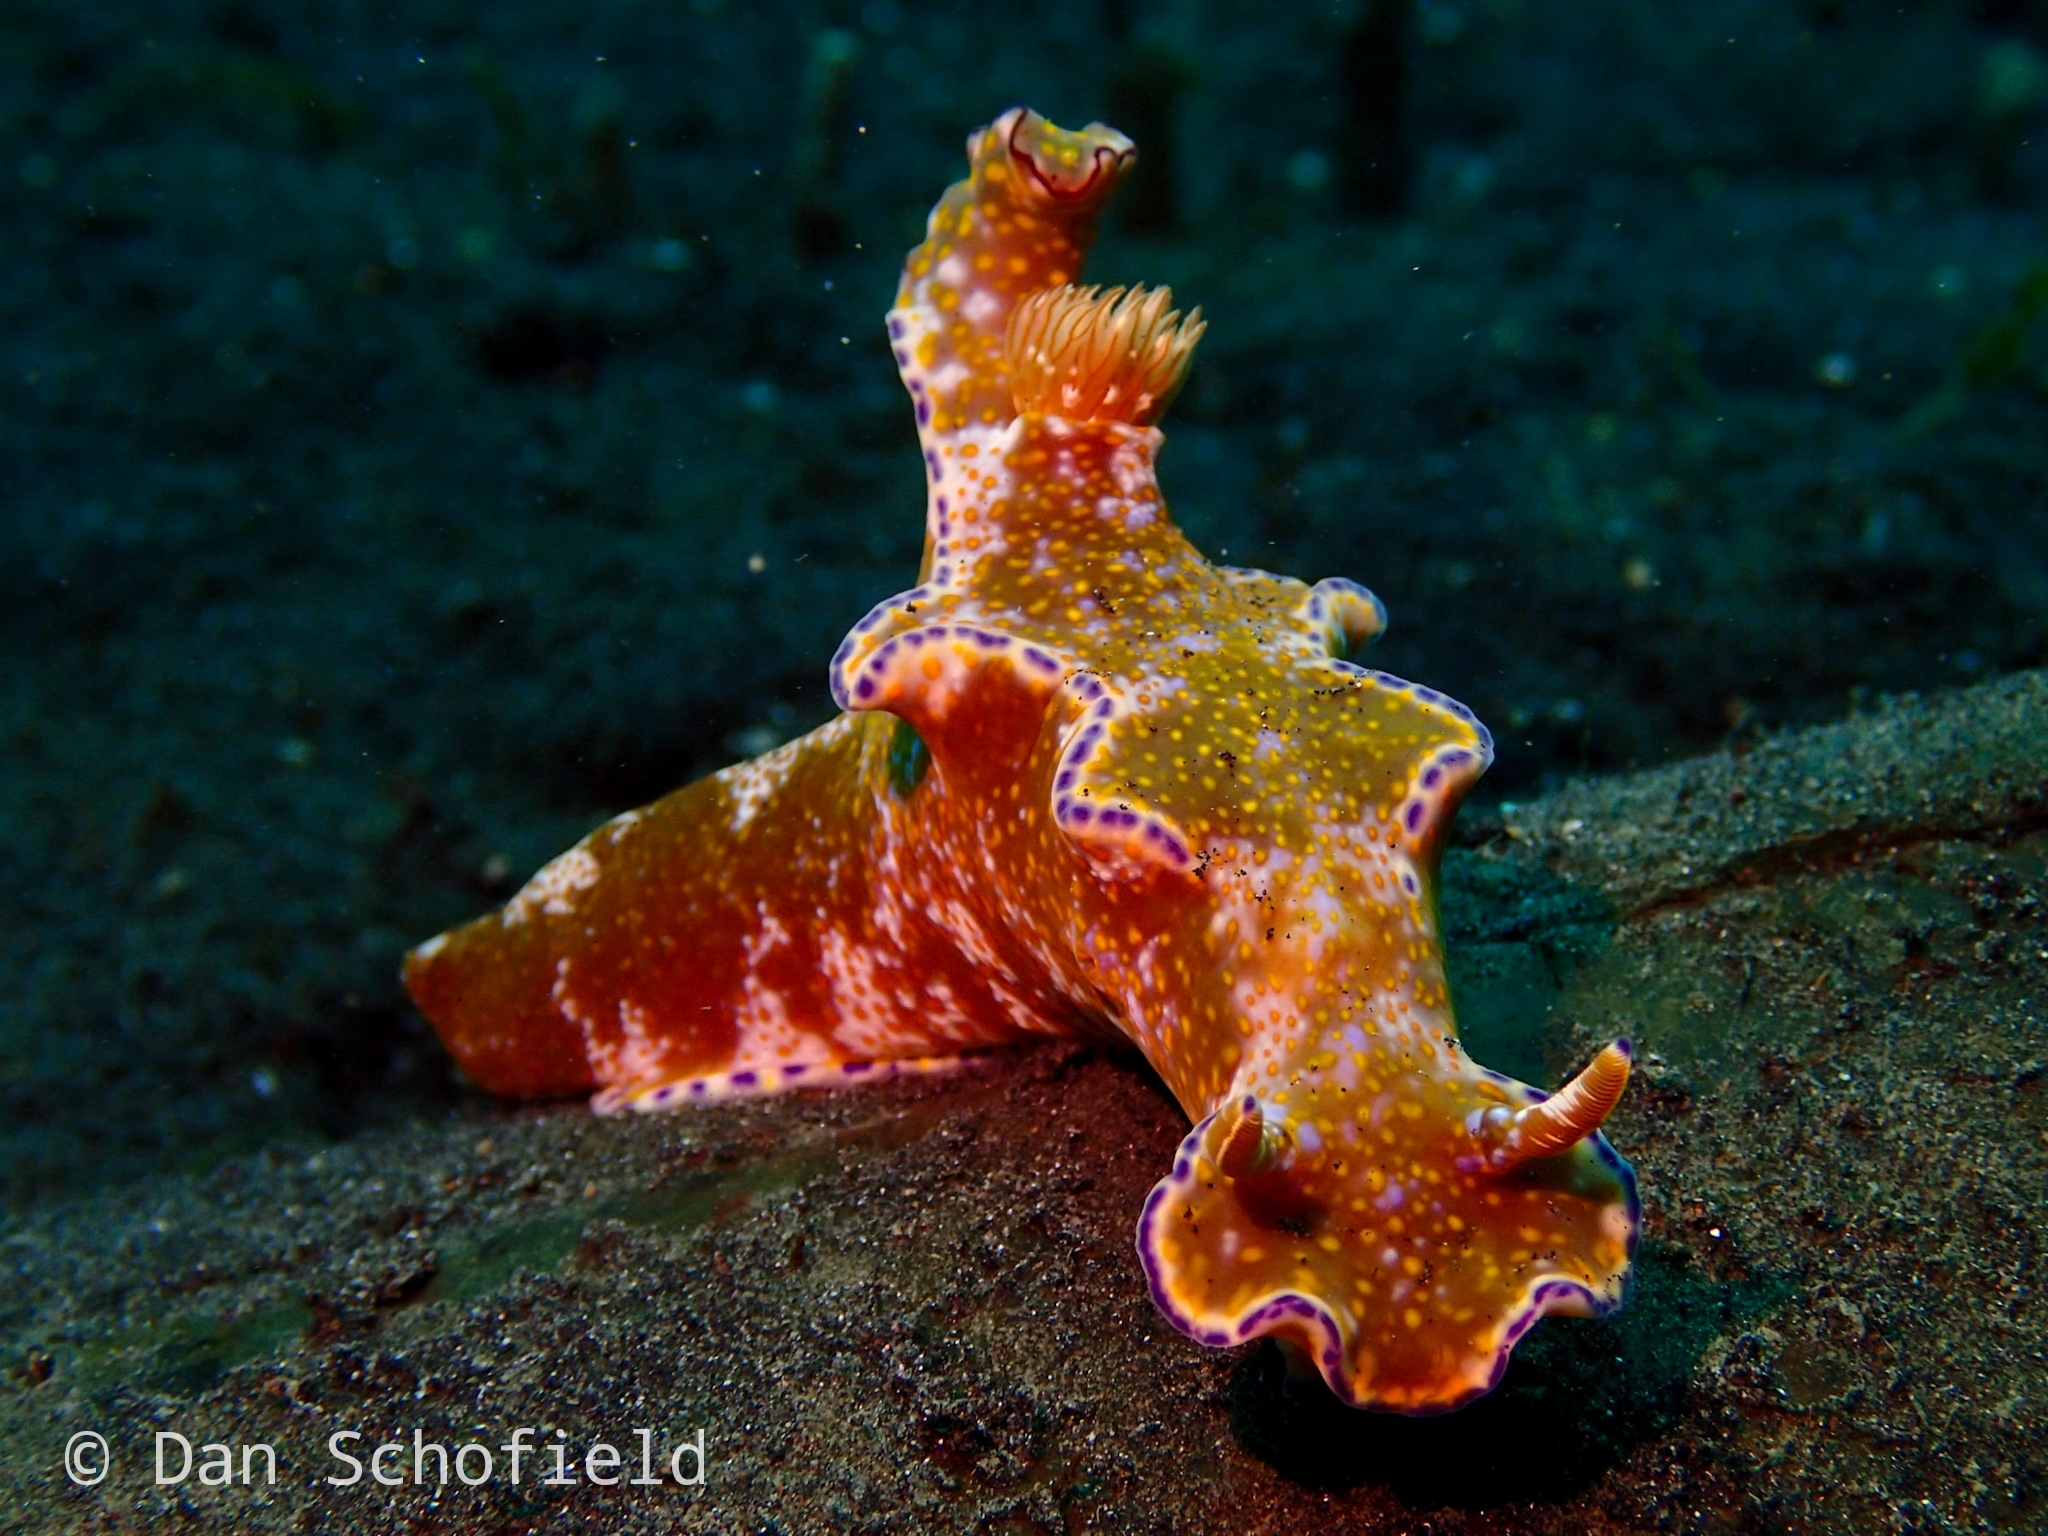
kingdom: Animalia
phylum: Mollusca
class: Gastropoda
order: Nudibranchia
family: Chromodorididae
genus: Ceratosoma
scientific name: Ceratosoma tenue
